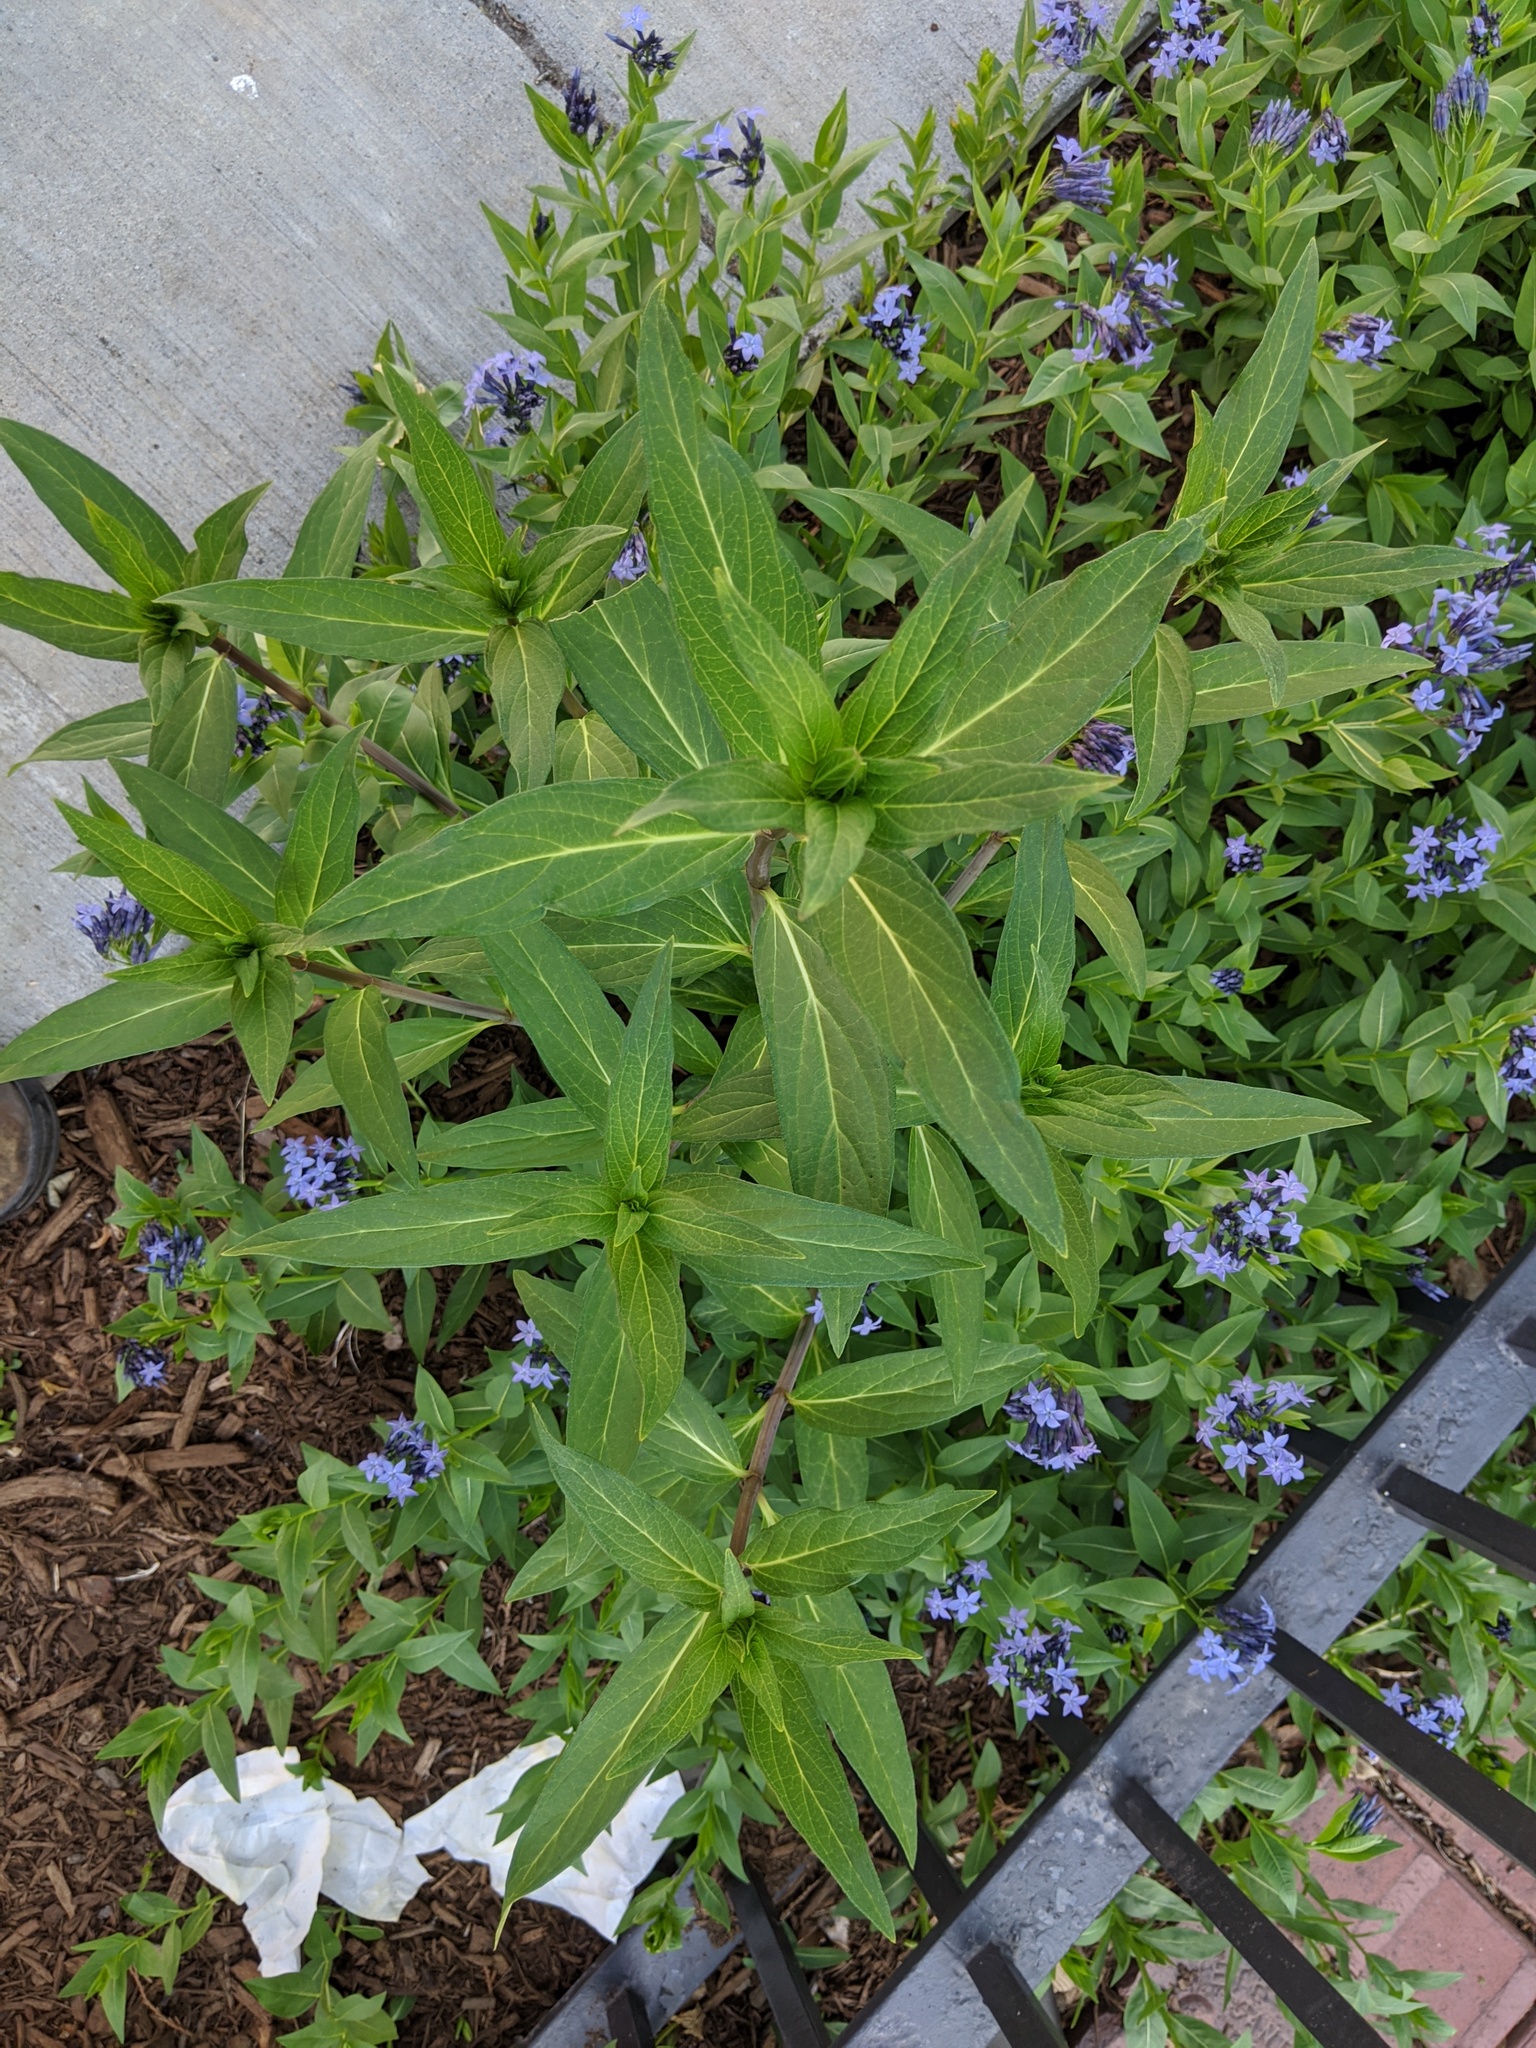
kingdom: Plantae
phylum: Tracheophyta
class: Magnoliopsida
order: Gentianales
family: Apocynaceae
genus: Asclepias
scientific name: Asclepias incarnata
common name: Swamp milkweed
